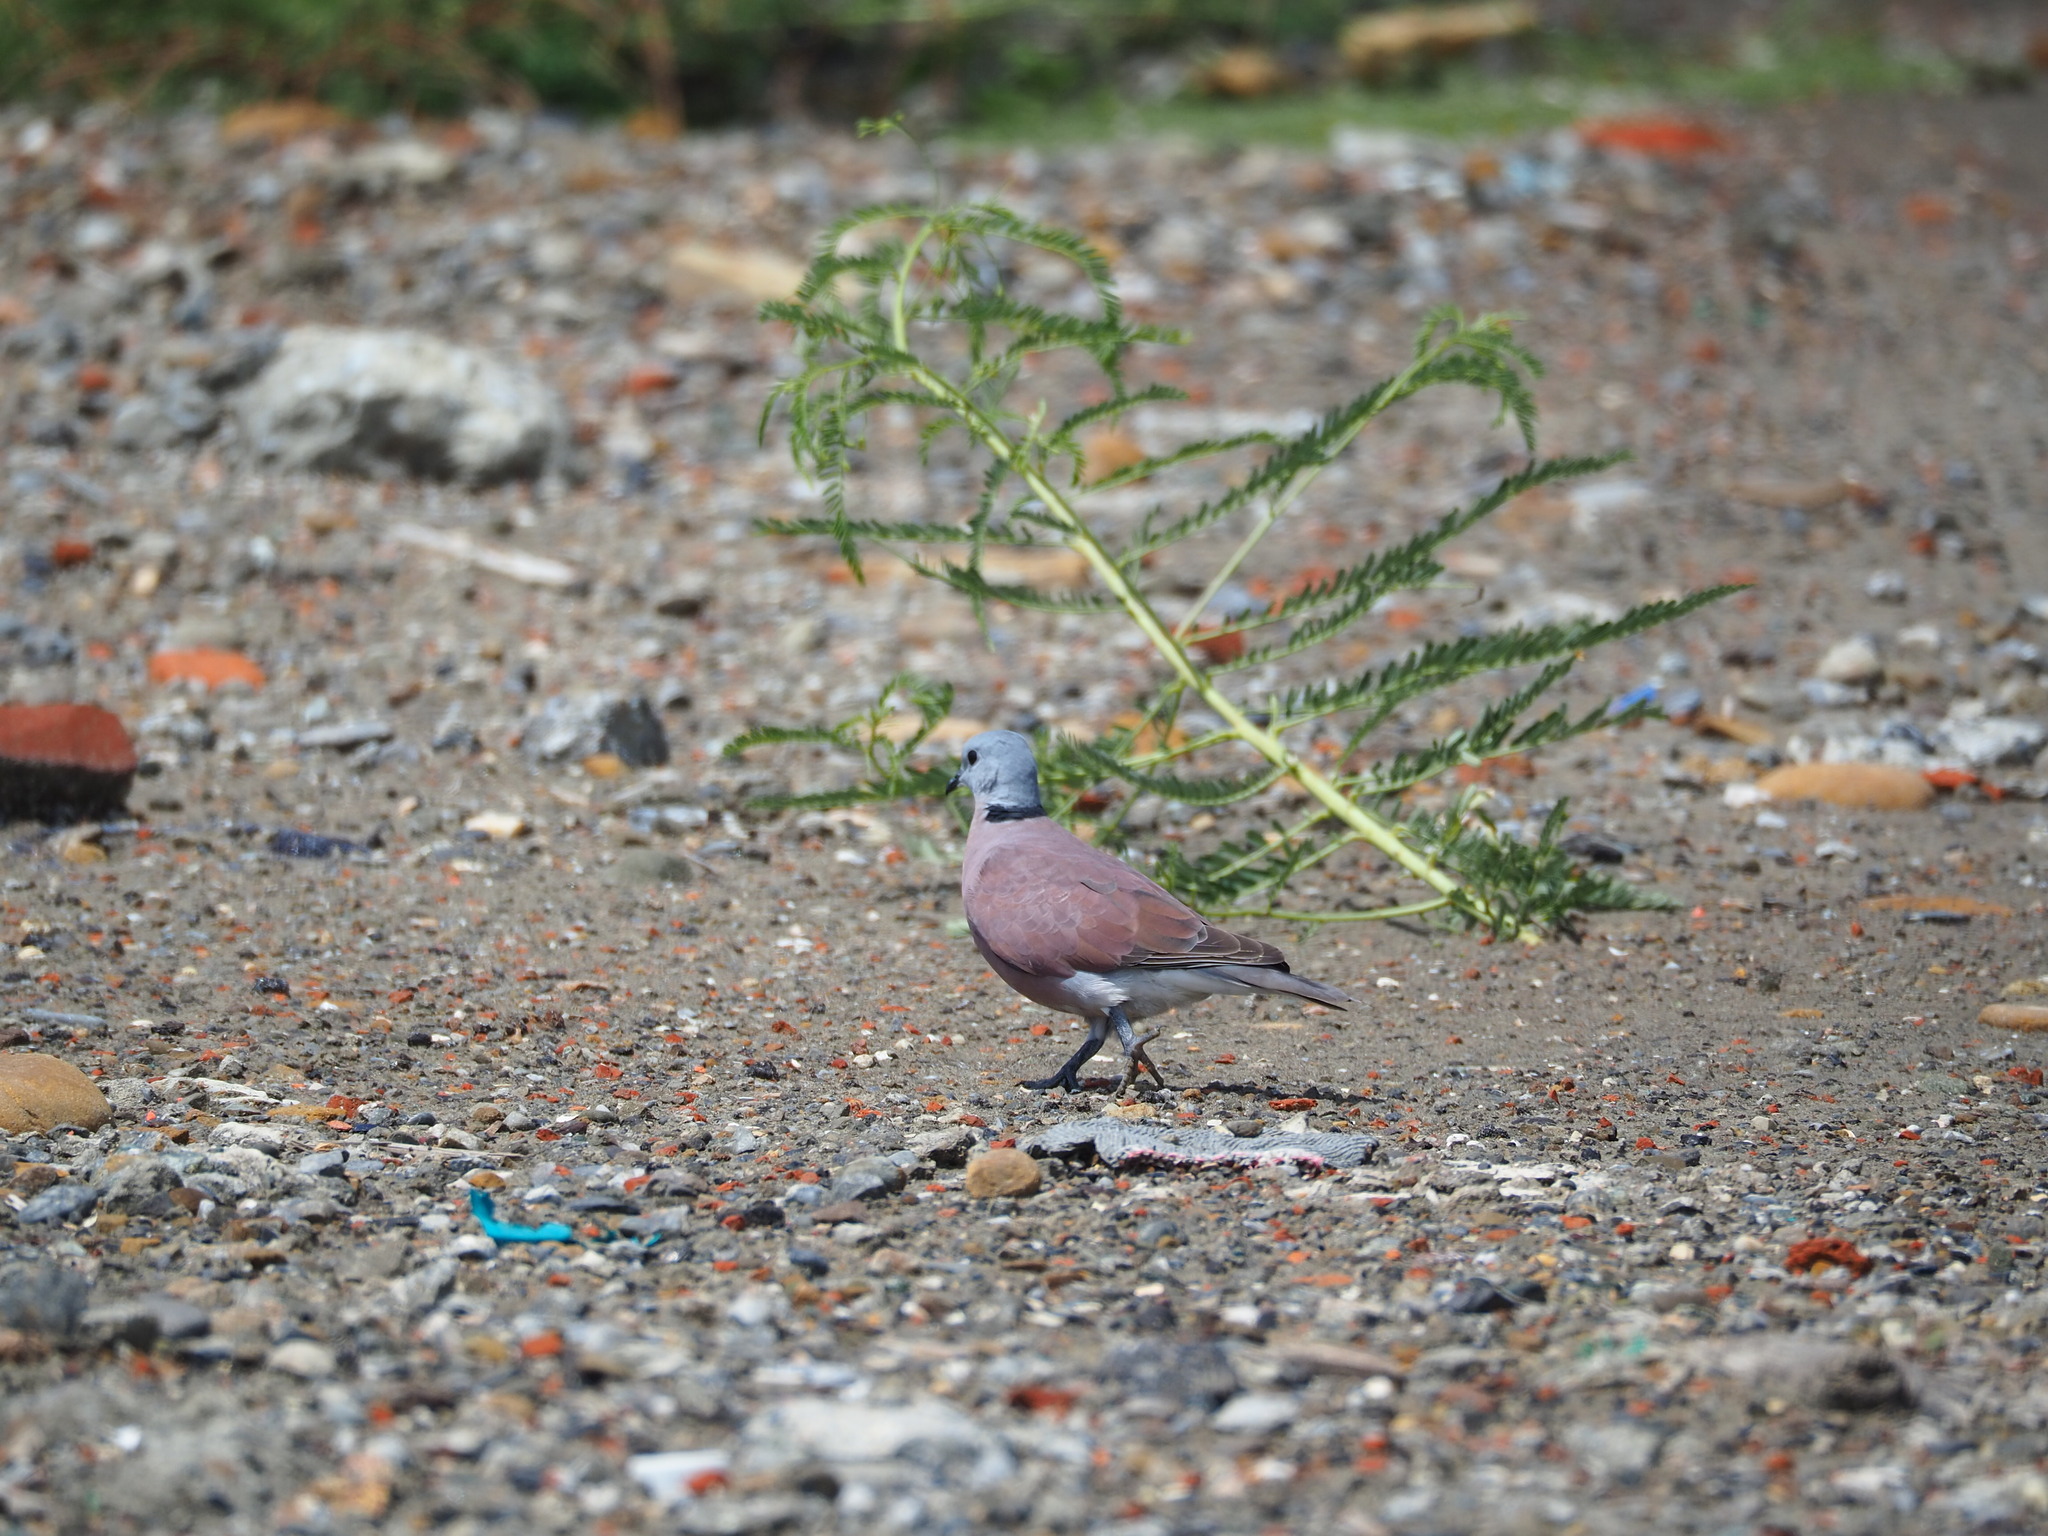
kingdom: Animalia
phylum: Chordata
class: Aves
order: Columbiformes
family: Columbidae
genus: Streptopelia
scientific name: Streptopelia tranquebarica
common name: Red turtle dove
